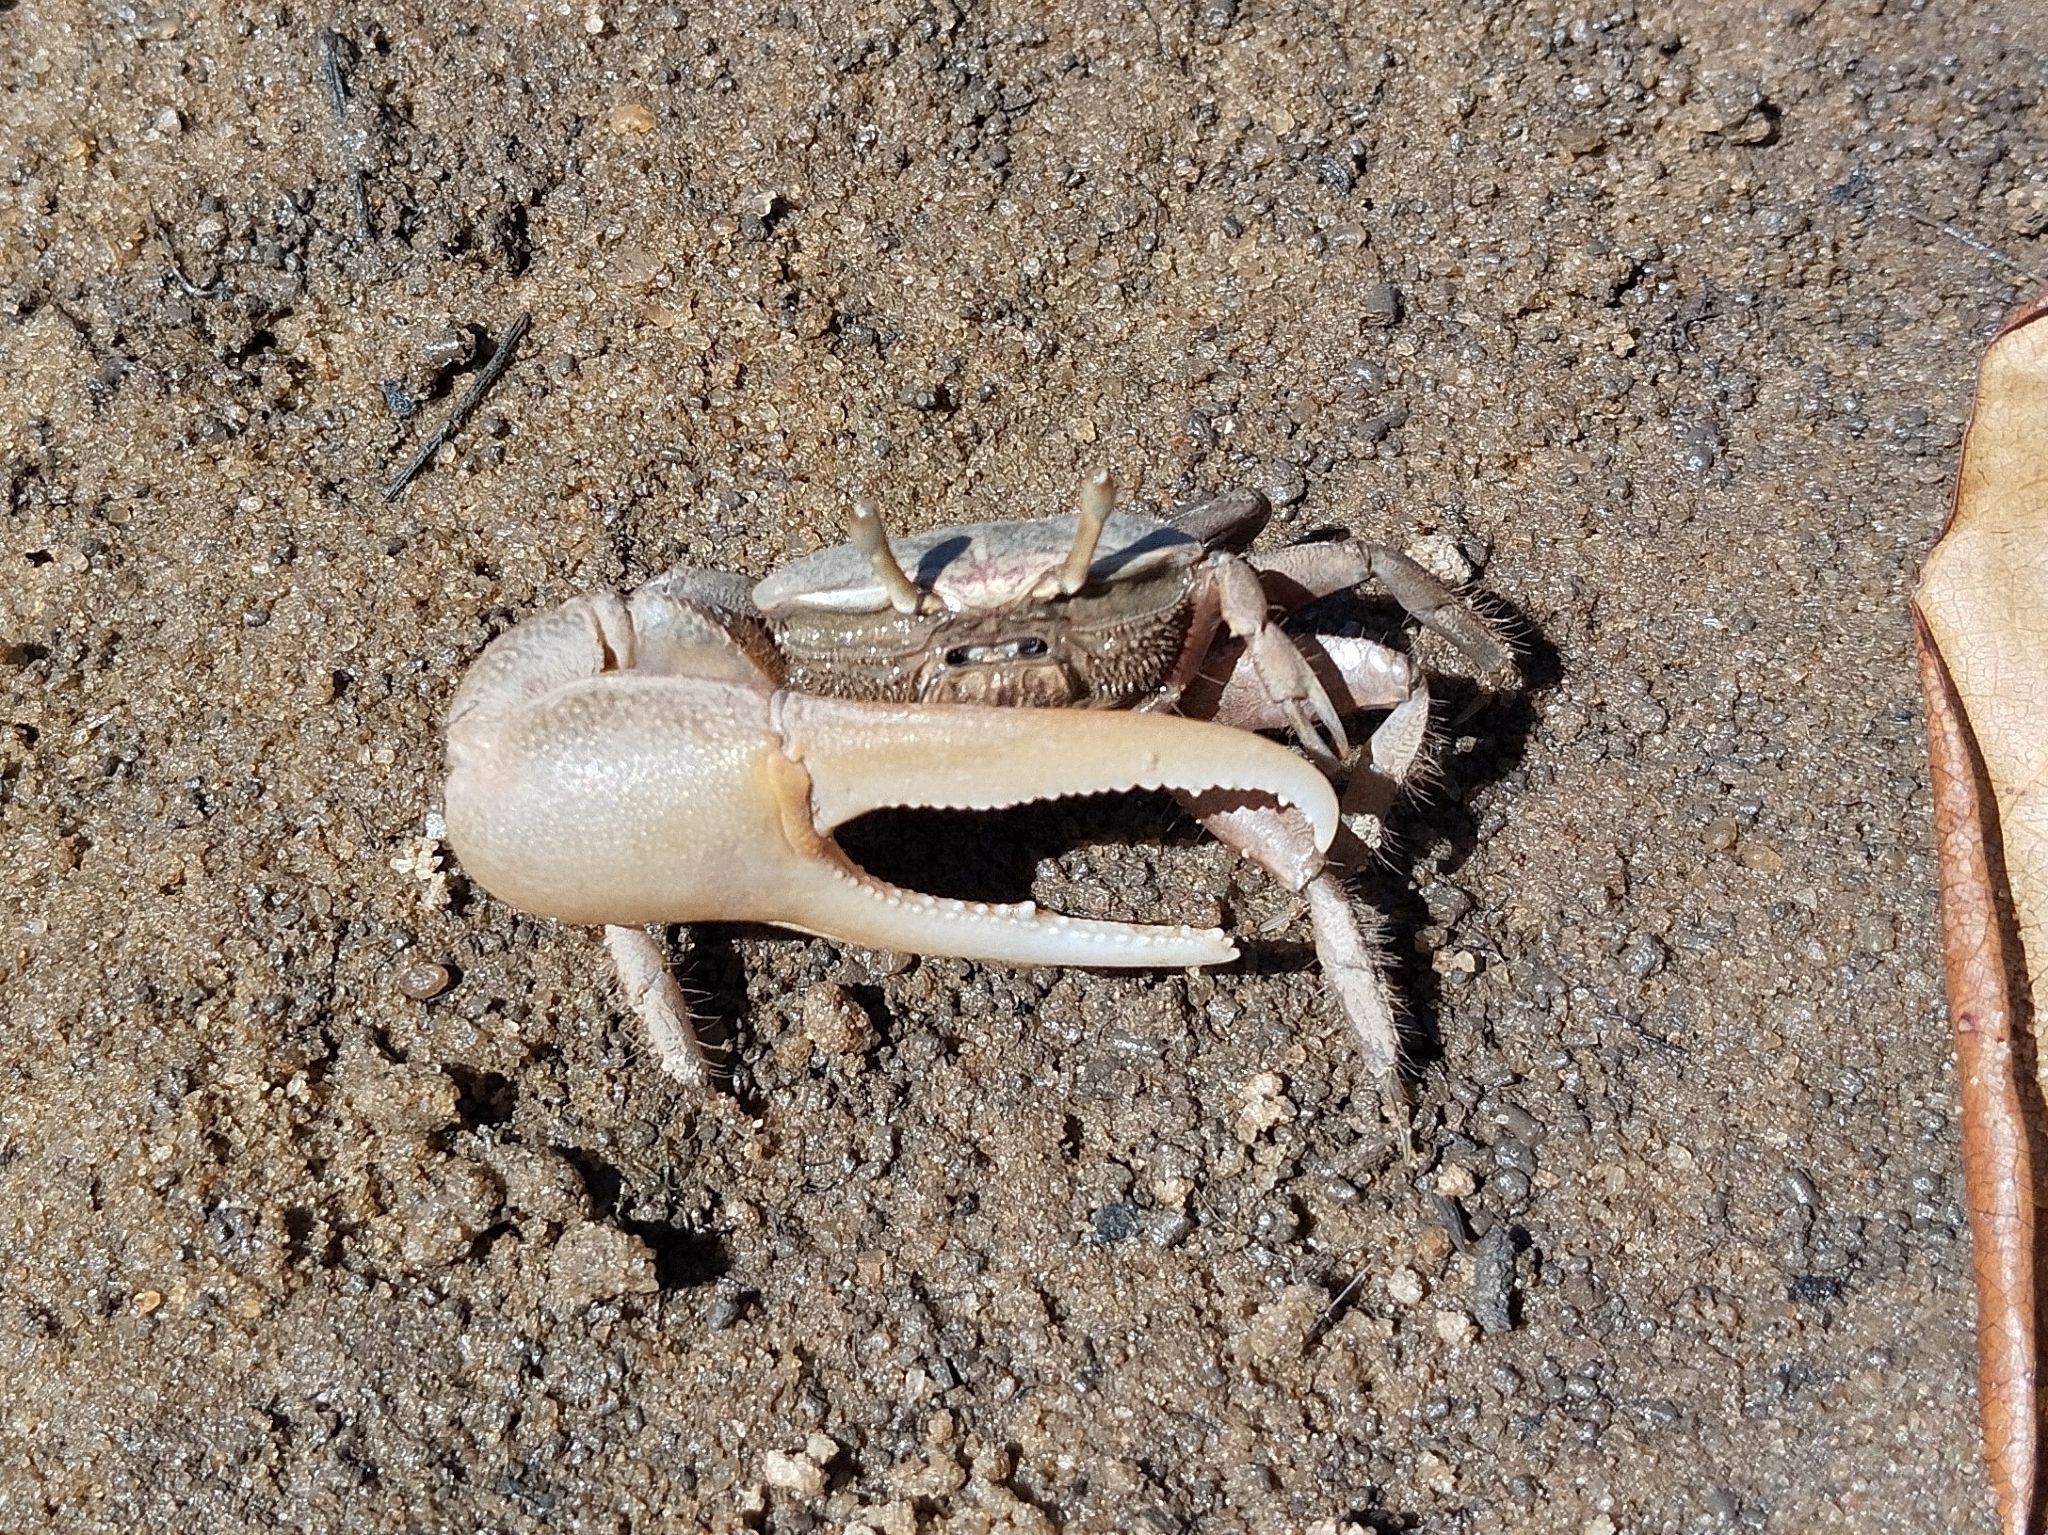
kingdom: Animalia
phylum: Arthropoda
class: Malacostraca
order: Decapoda
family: Ocypodidae
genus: Minuca
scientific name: Minuca rapax
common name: Rapacious fiddler crab
